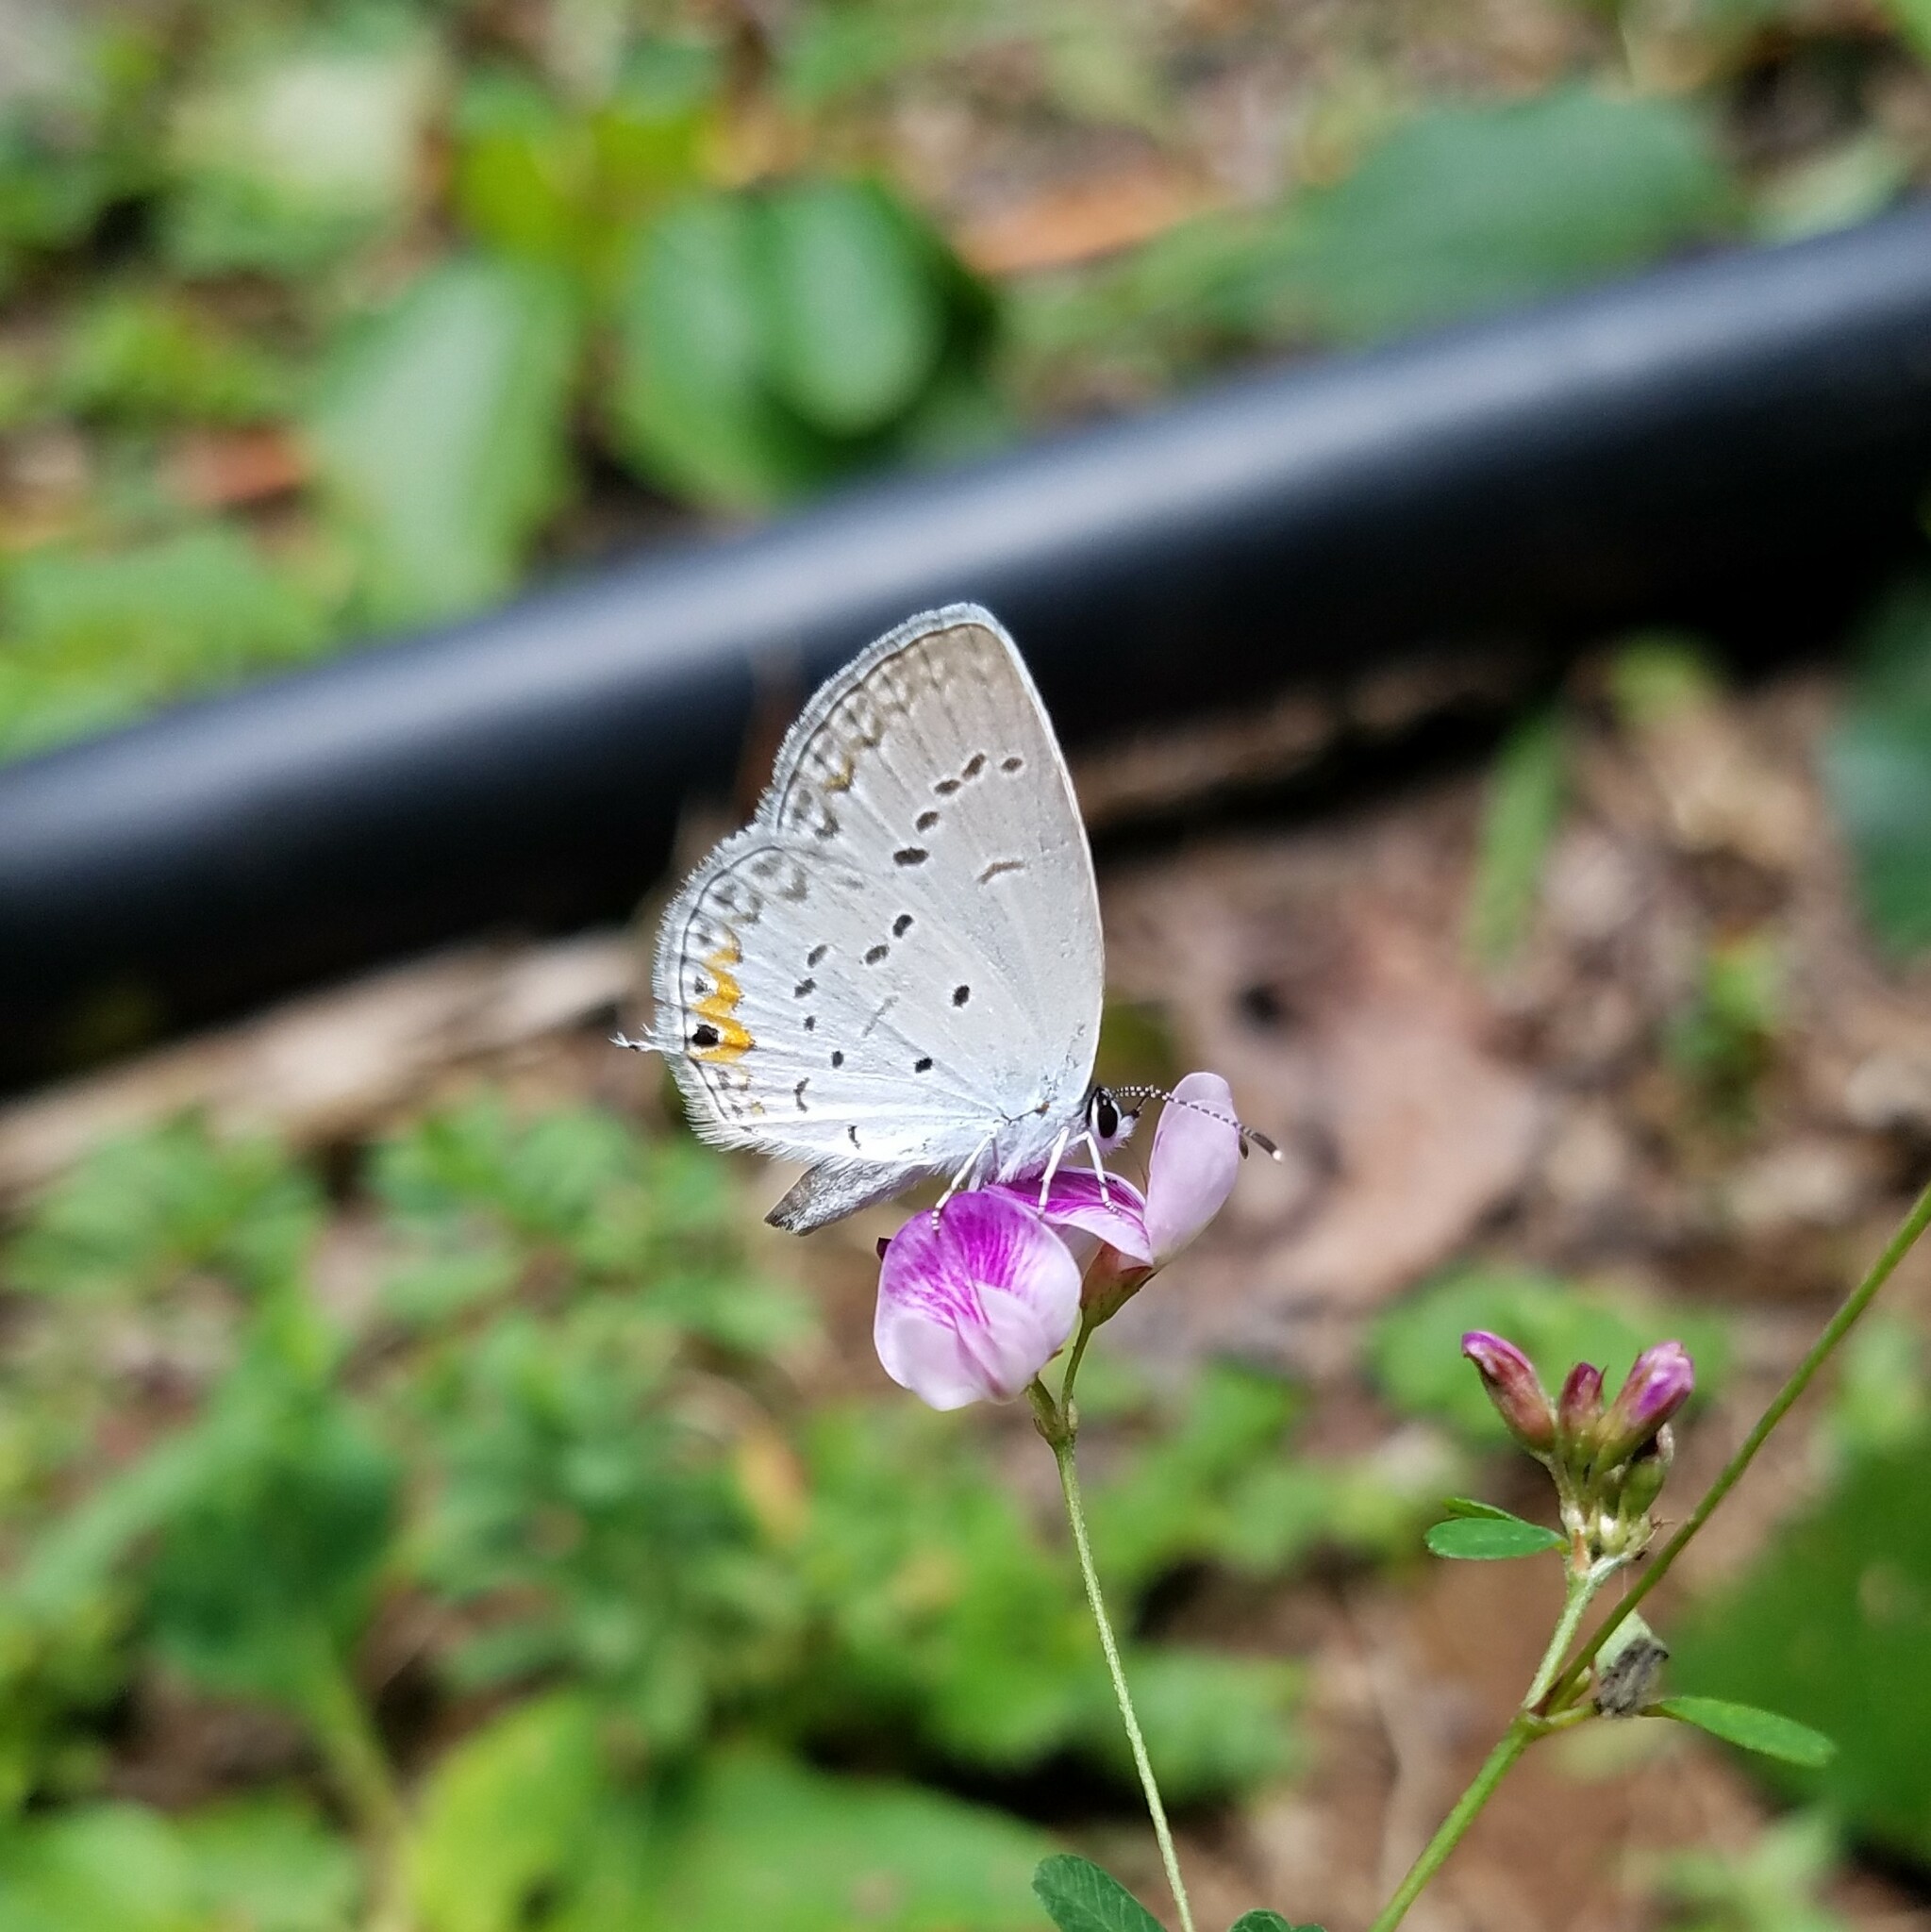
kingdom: Animalia
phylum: Arthropoda
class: Insecta
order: Lepidoptera
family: Lycaenidae
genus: Elkalyce
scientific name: Elkalyce comyntas
